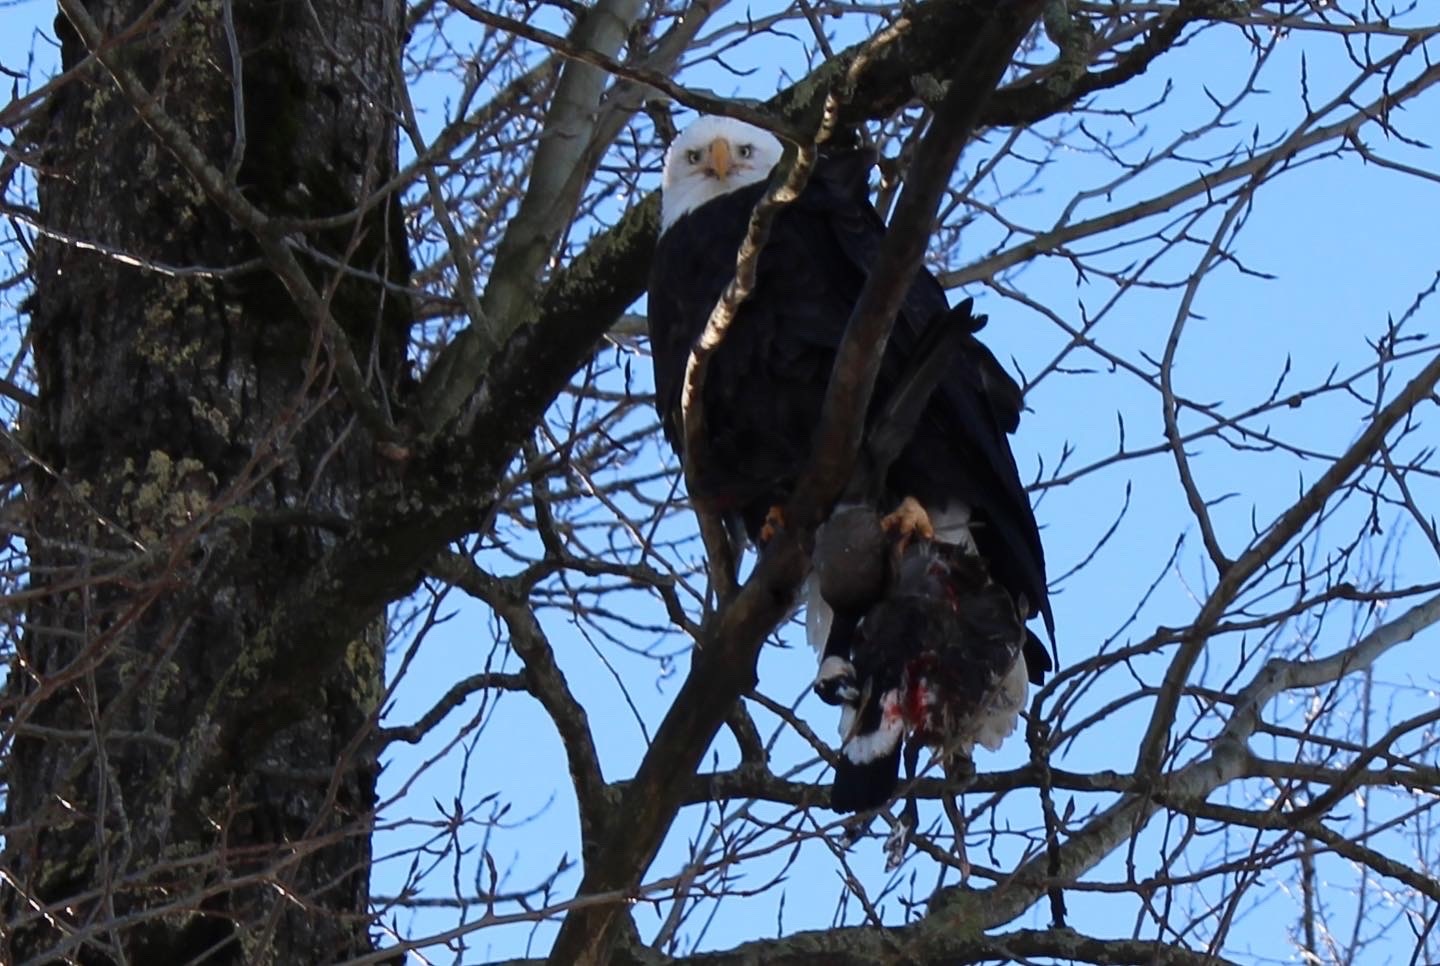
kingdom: Animalia
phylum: Chordata
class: Aves
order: Accipitriformes
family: Accipitridae
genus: Haliaeetus
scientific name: Haliaeetus leucocephalus
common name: Bald eagle
